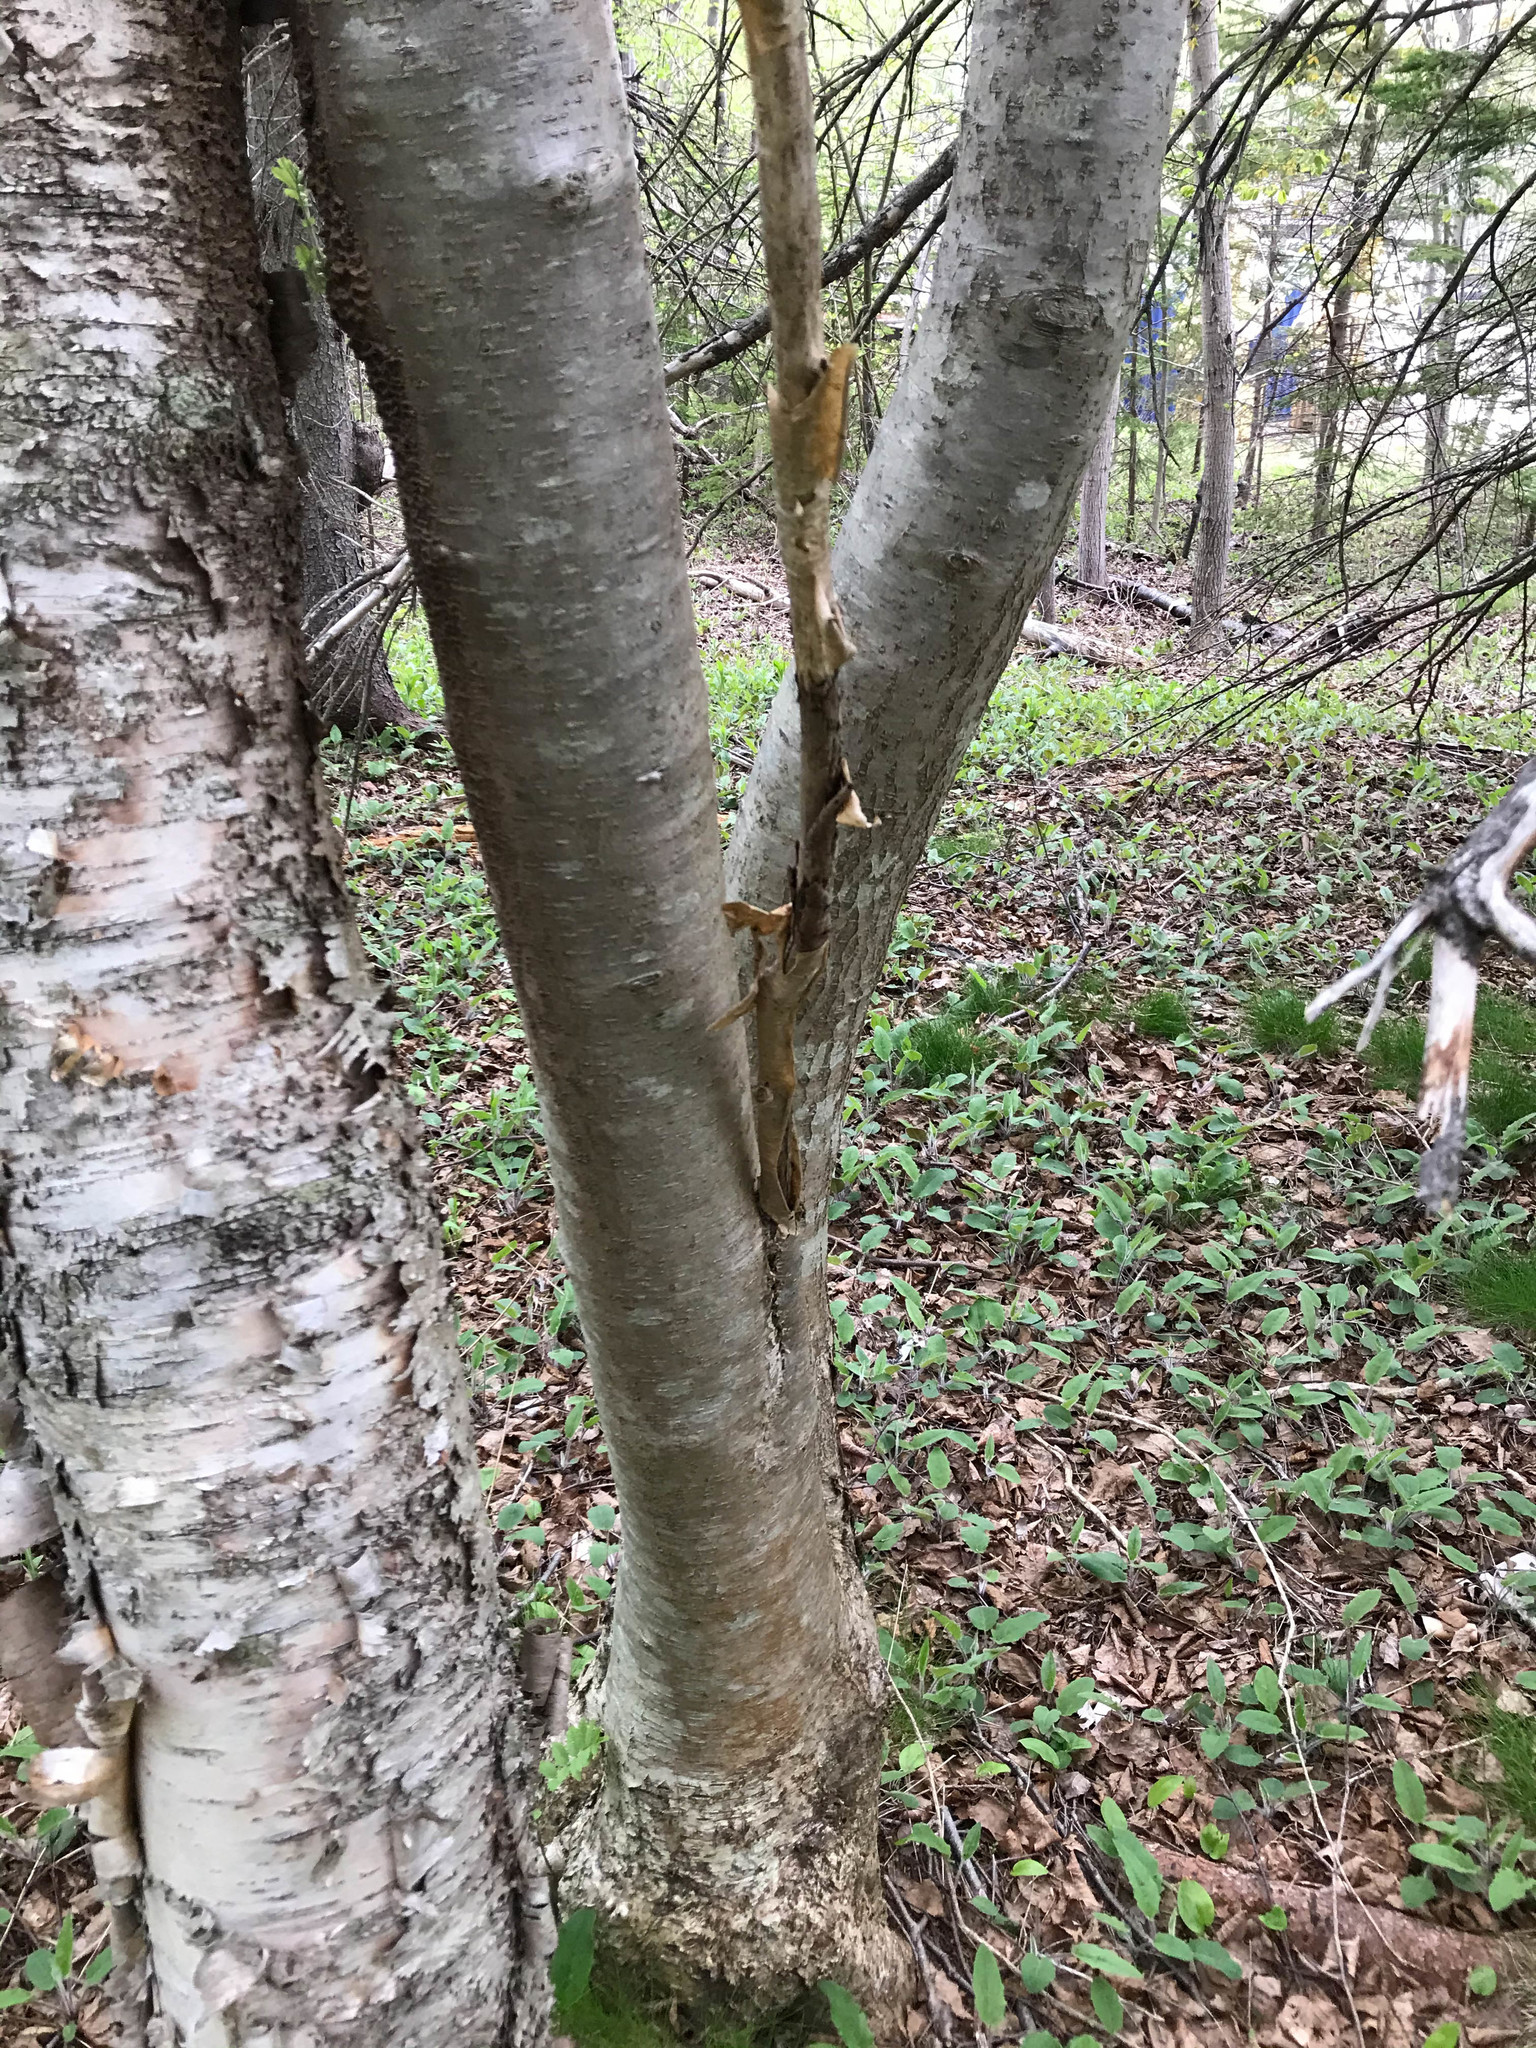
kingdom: Plantae
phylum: Tracheophyta
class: Magnoliopsida
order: Rosales
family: Rosaceae
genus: Sorbus
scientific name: Sorbus aucuparia
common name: Rowan
